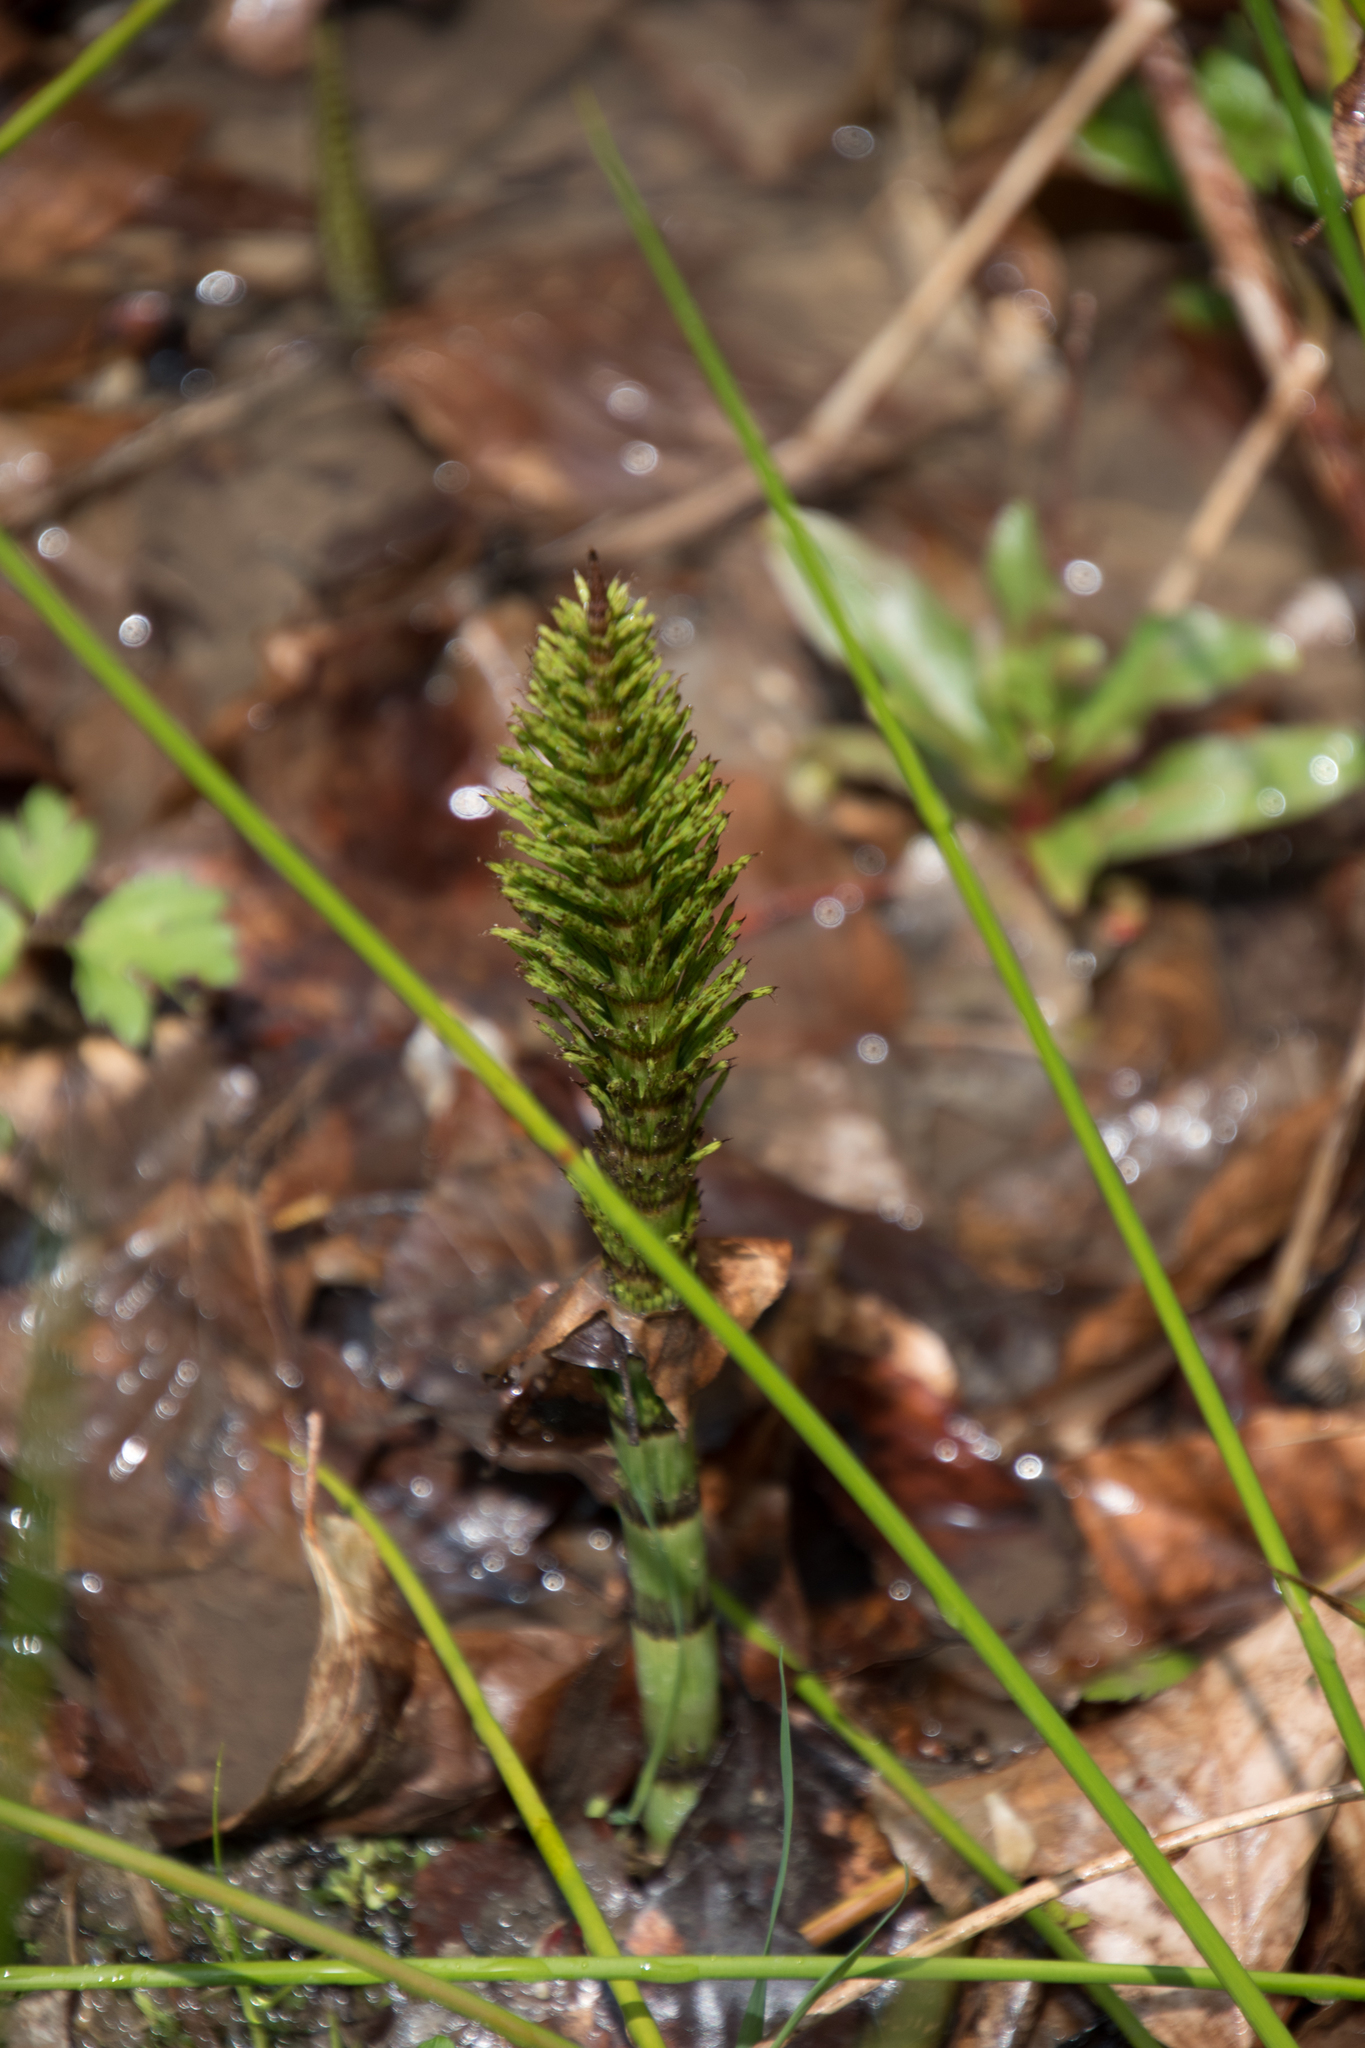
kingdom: Plantae
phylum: Tracheophyta
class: Polypodiopsida
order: Equisetales
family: Equisetaceae
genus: Equisetum
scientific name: Equisetum telmateia
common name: Great horsetail
